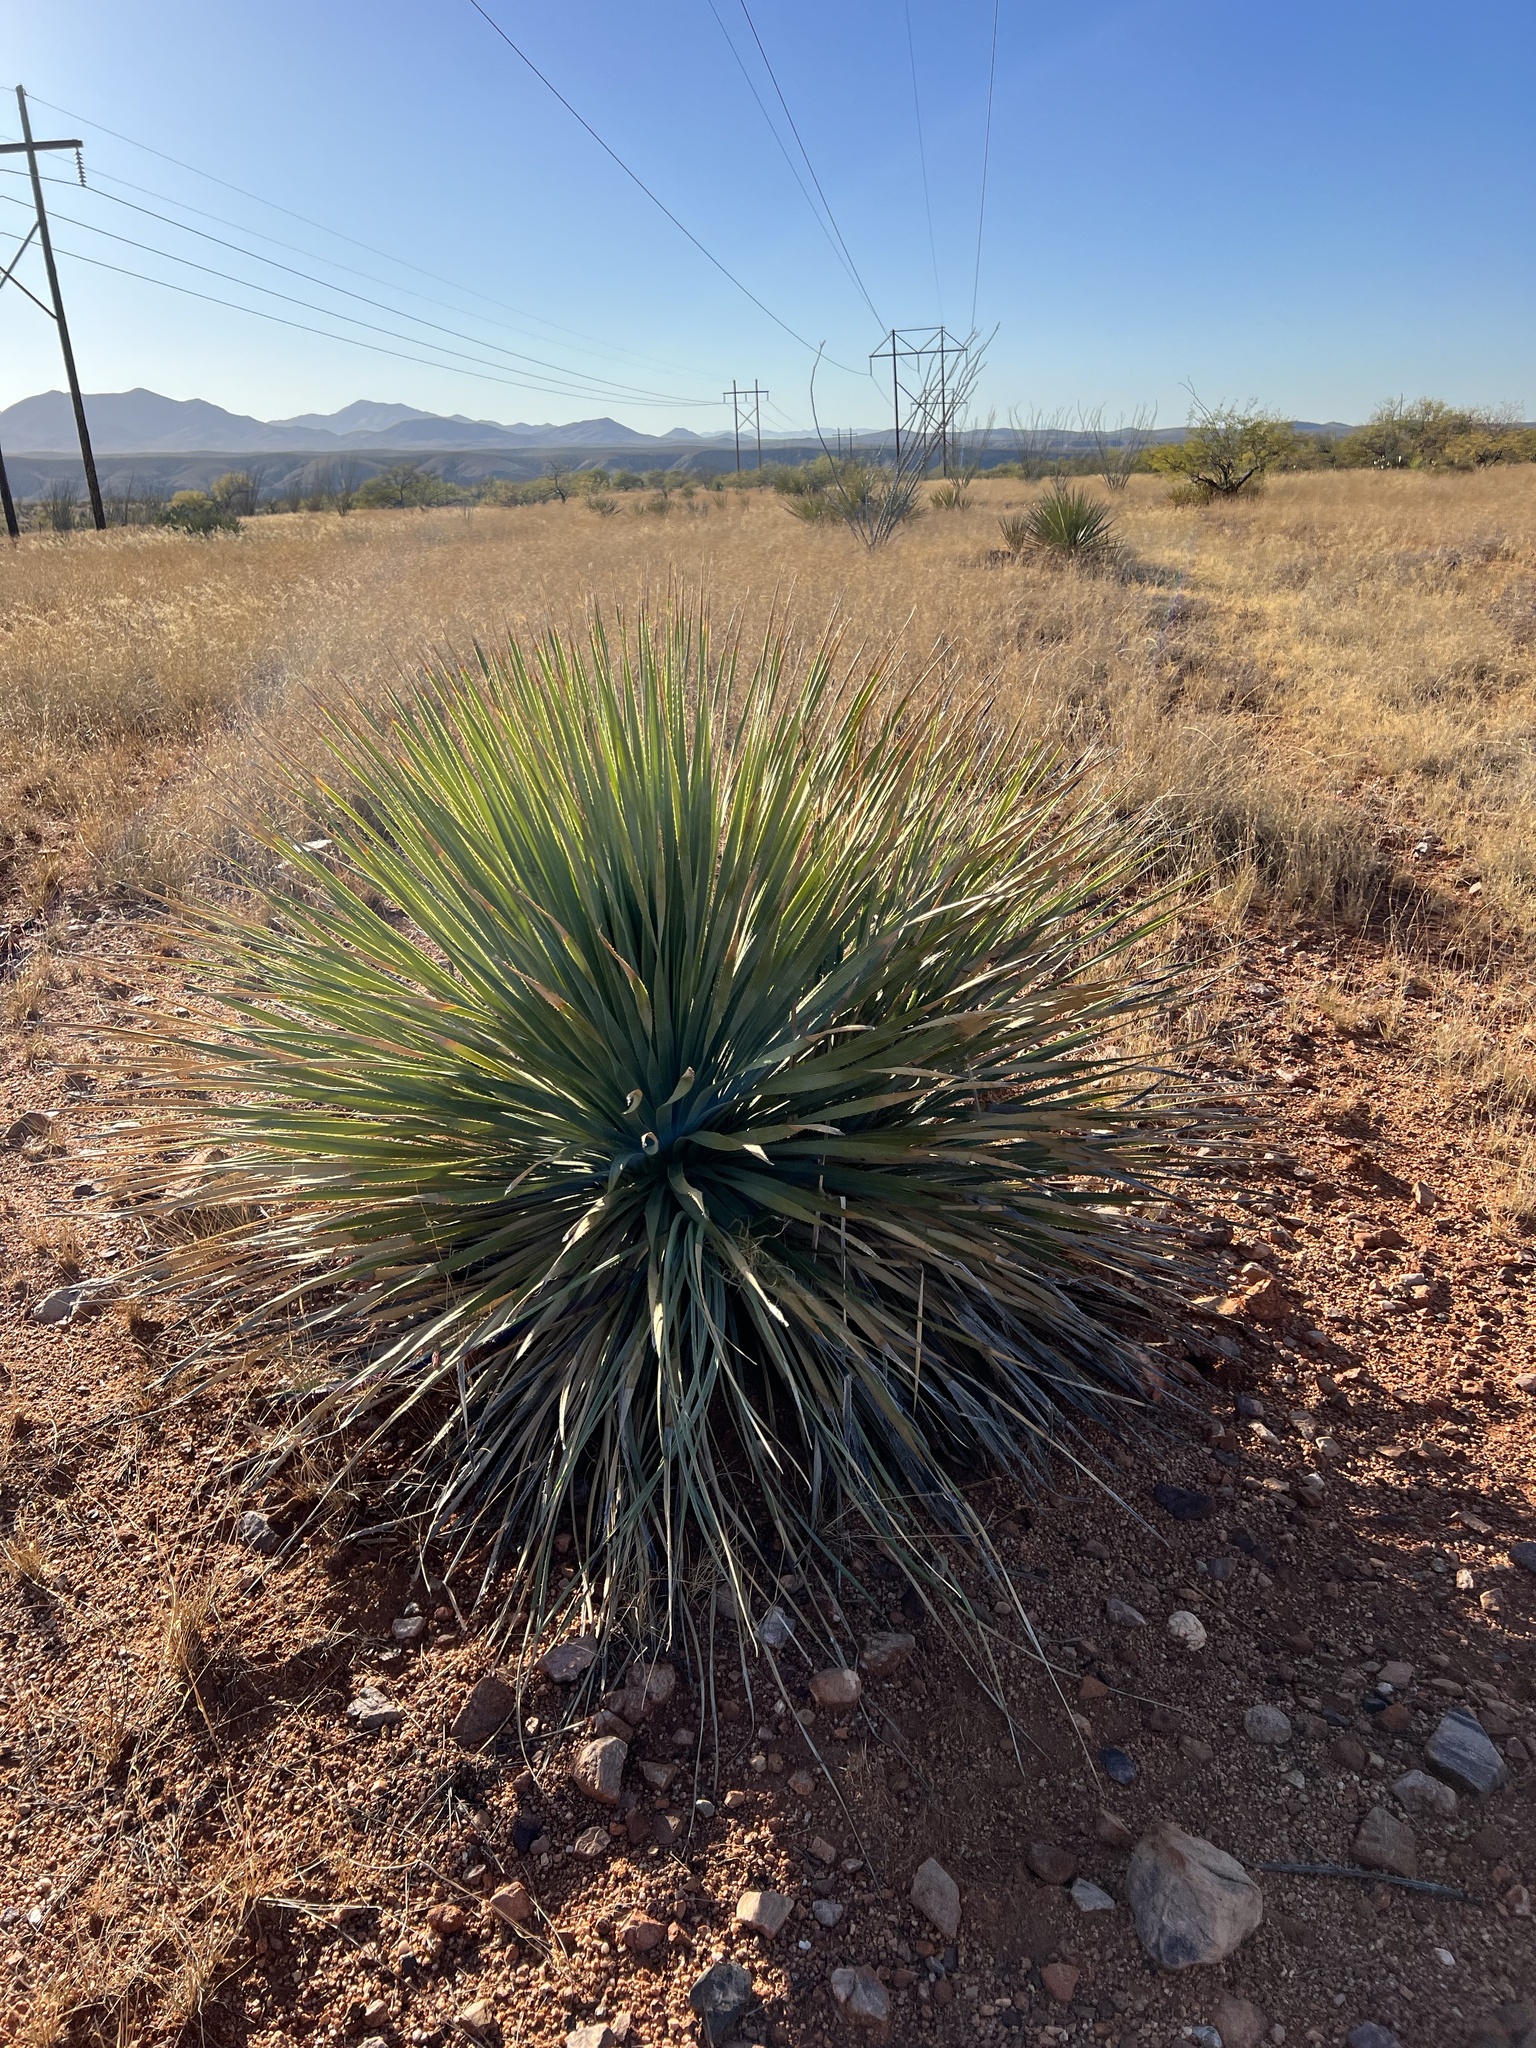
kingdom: Plantae
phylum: Tracheophyta
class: Liliopsida
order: Asparagales
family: Asparagaceae
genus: Dasylirion
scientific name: Dasylirion wheeleri
